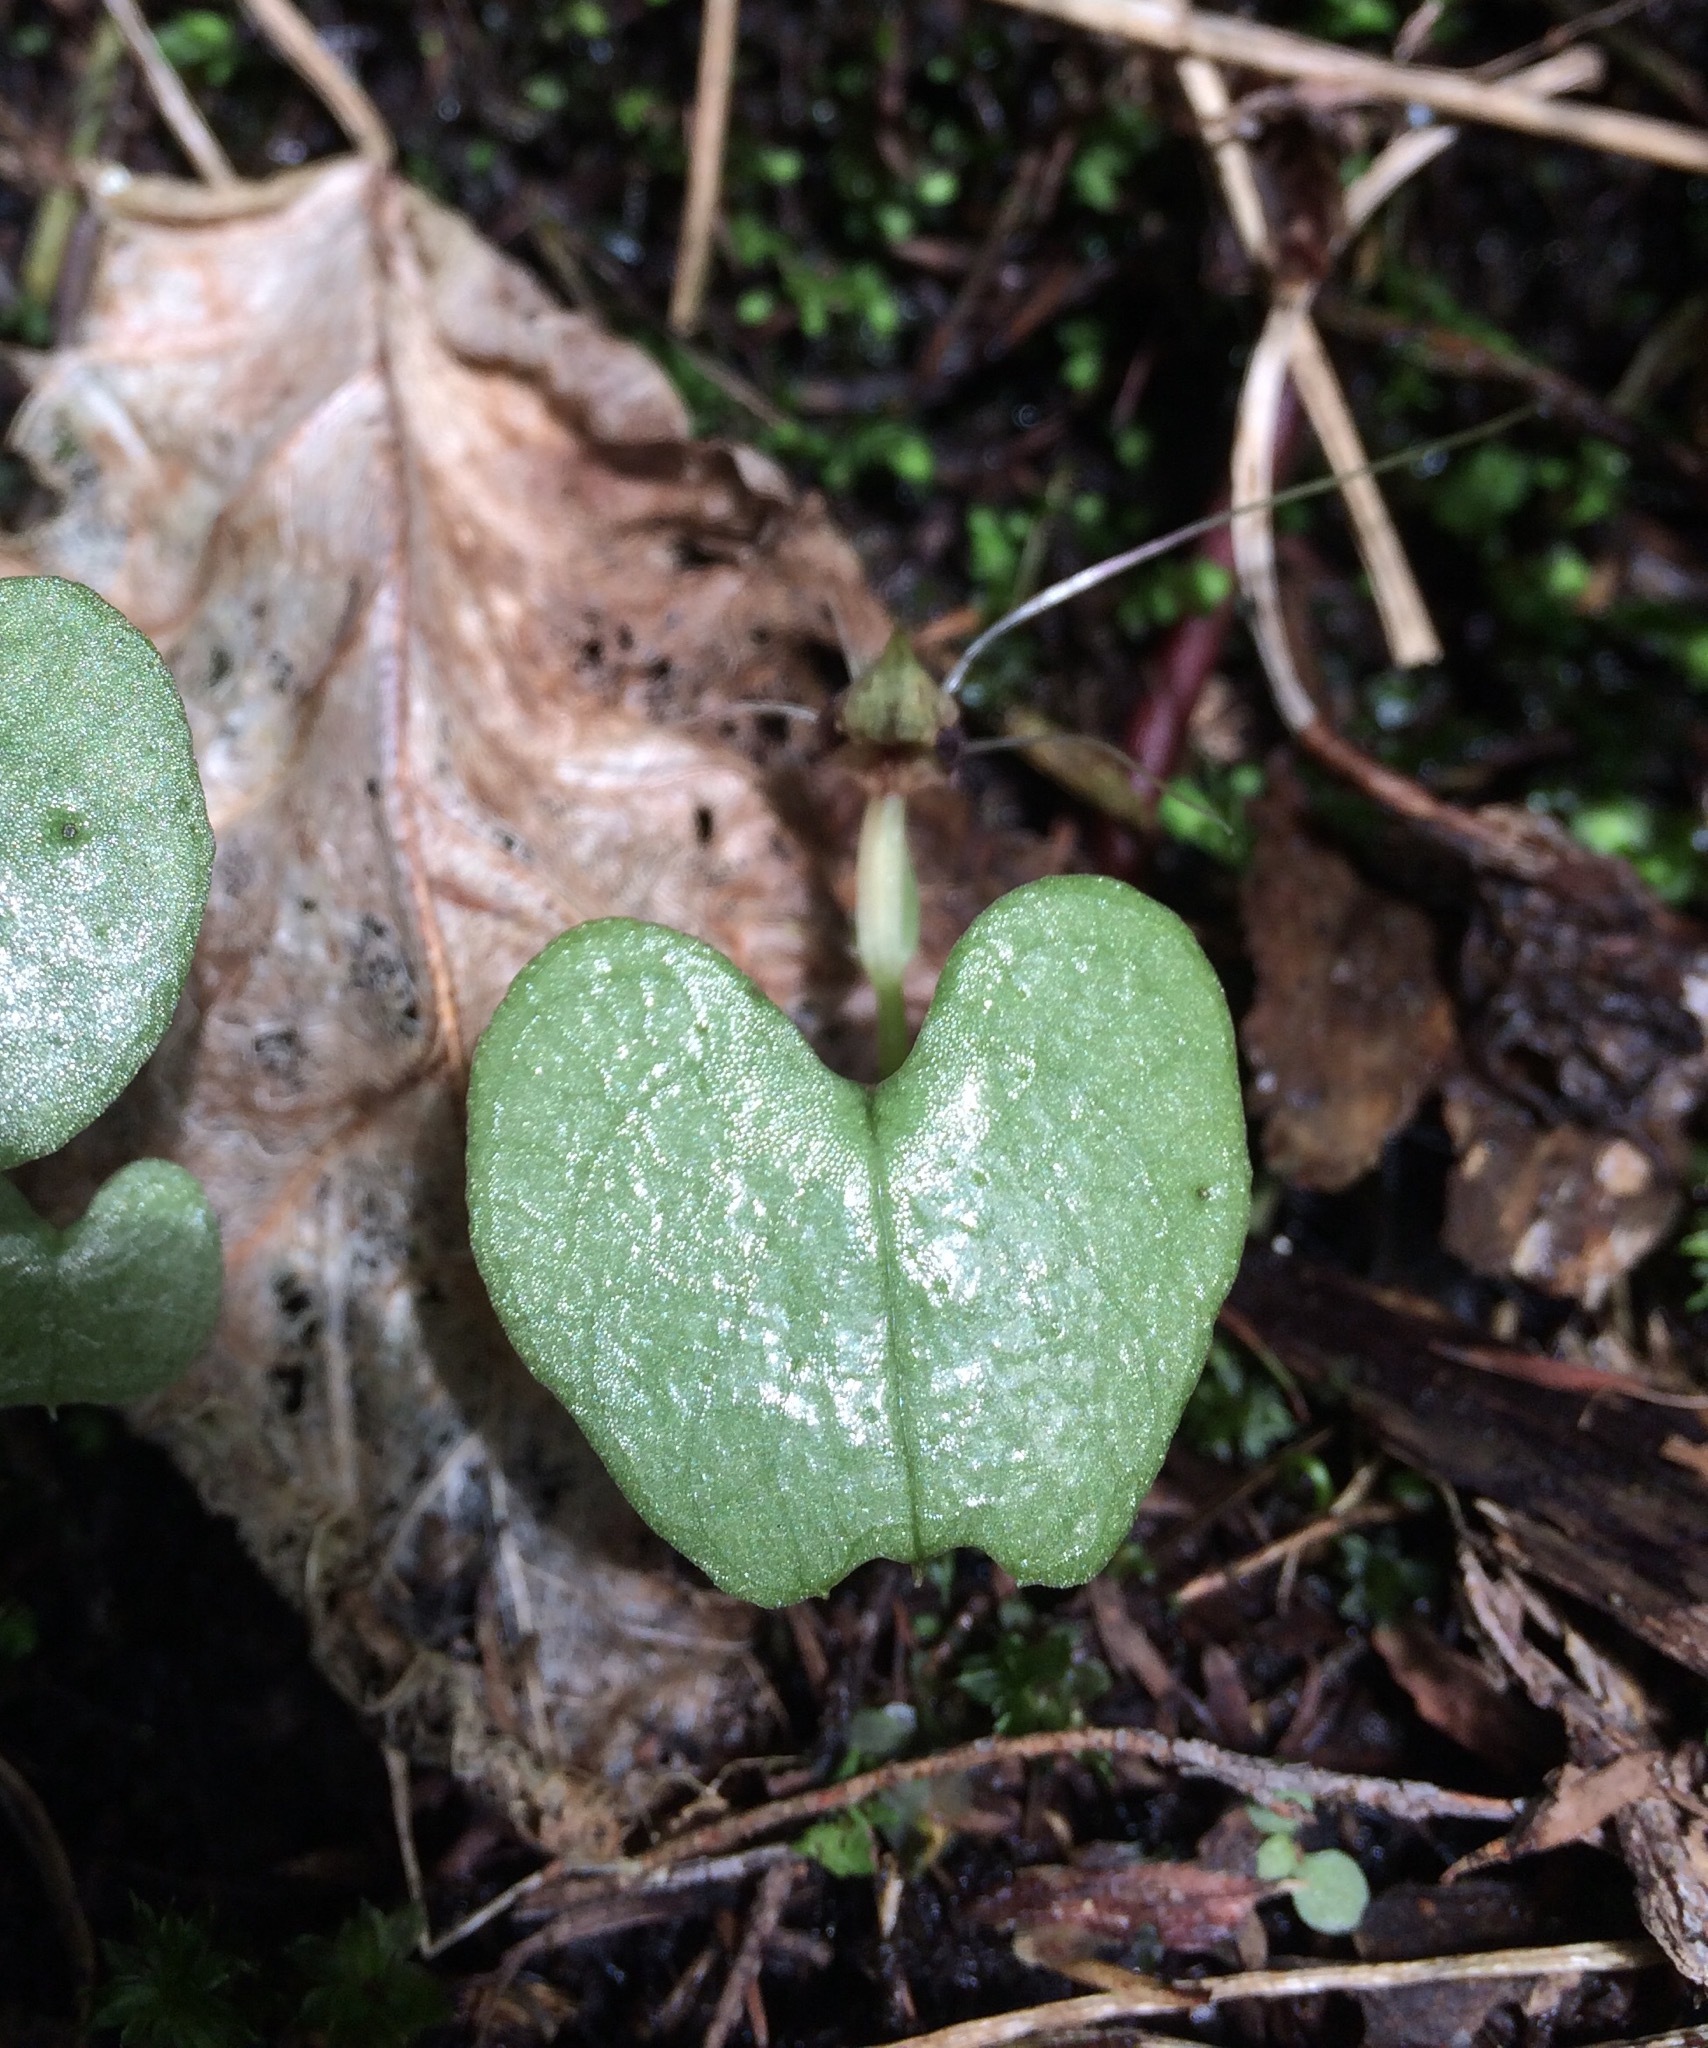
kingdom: Plantae
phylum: Tracheophyta
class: Liliopsida
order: Asparagales
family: Orchidaceae
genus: Corybas
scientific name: Corybas
